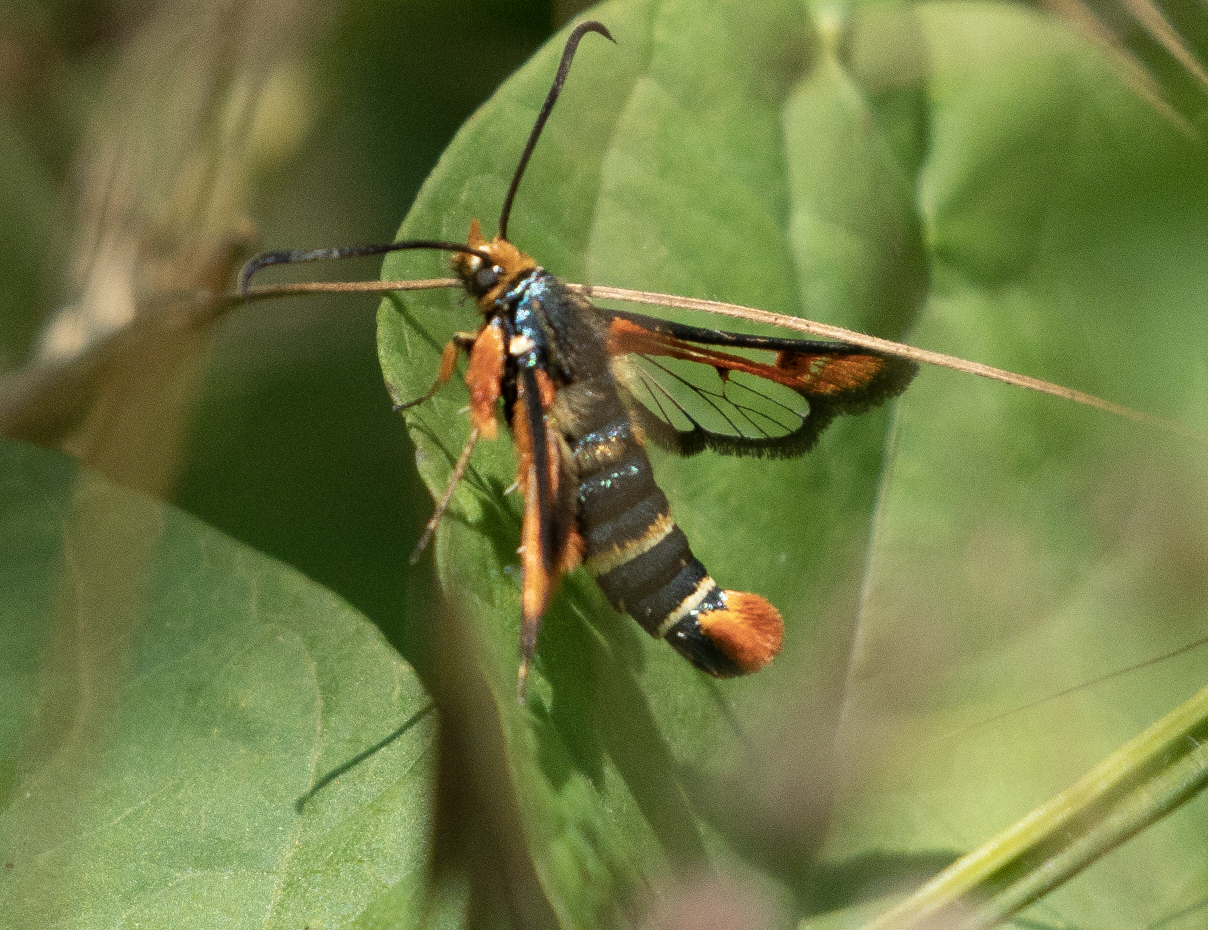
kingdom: Animalia
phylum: Arthropoda
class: Insecta
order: Lepidoptera
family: Sesiidae
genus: Pyropteron
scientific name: Pyropteron chrysidiforme
